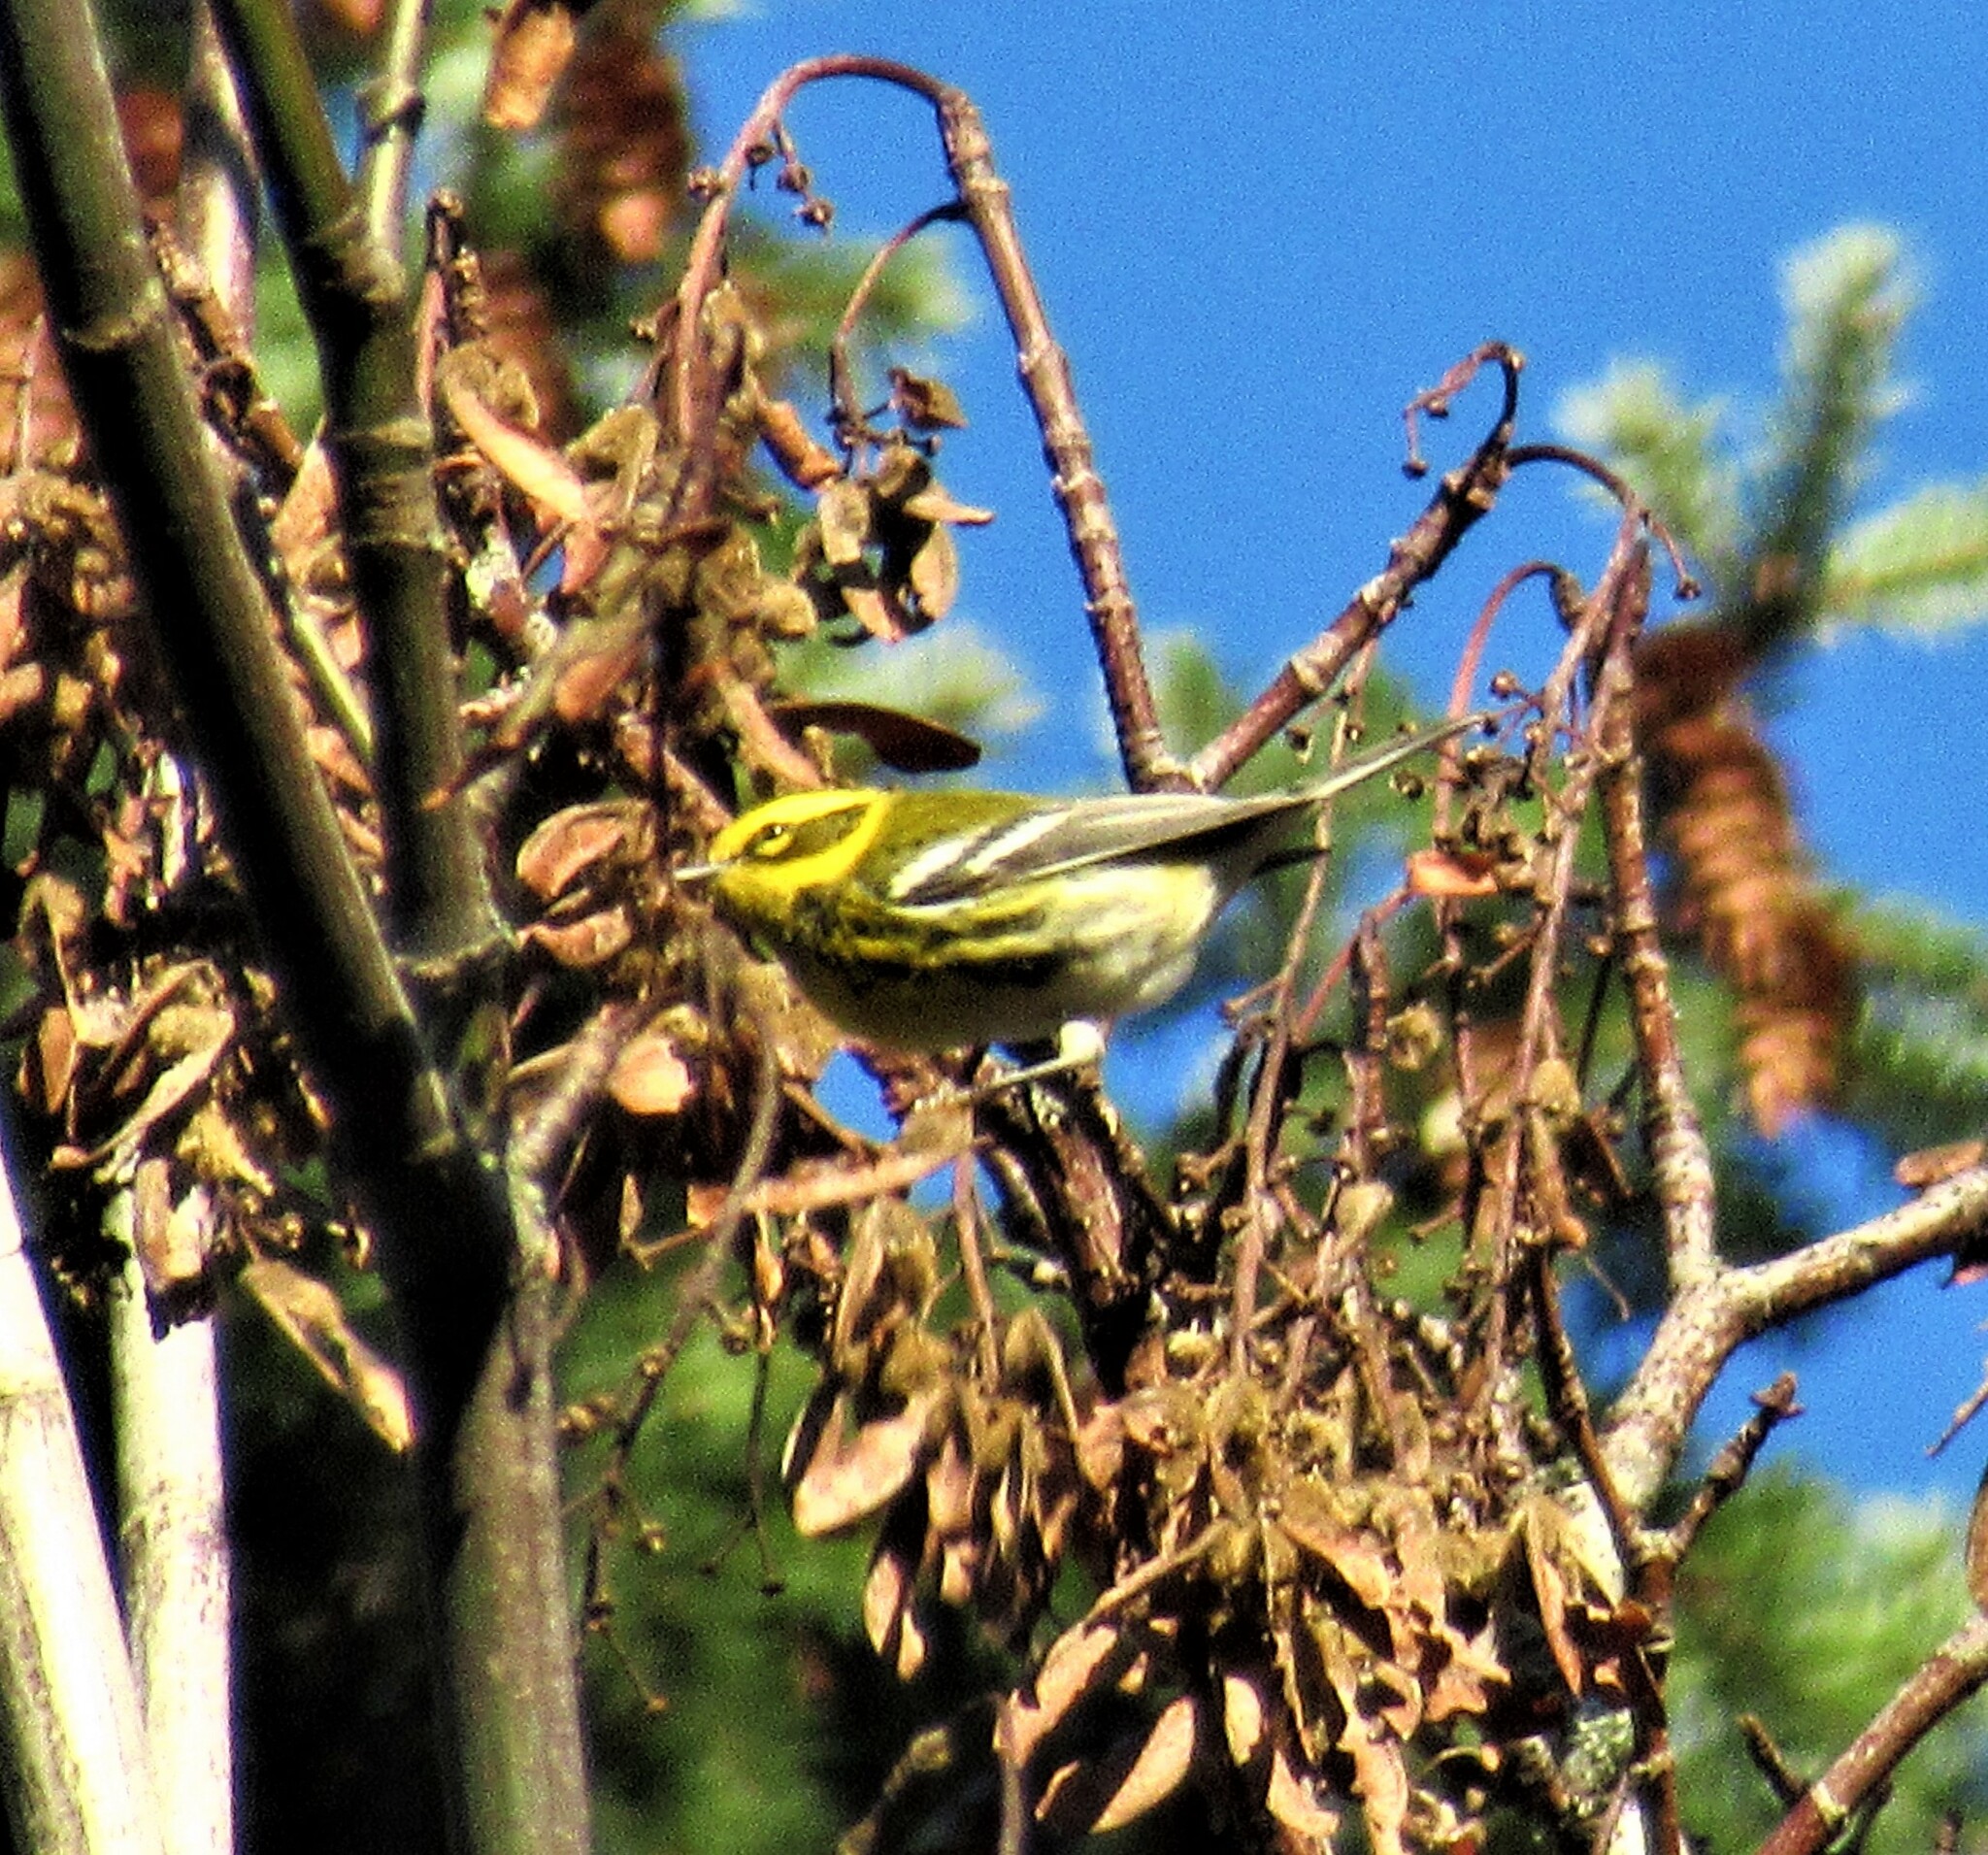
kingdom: Animalia
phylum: Chordata
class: Aves
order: Passeriformes
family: Parulidae
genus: Setophaga
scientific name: Setophaga townsendi
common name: Townsend's warbler
